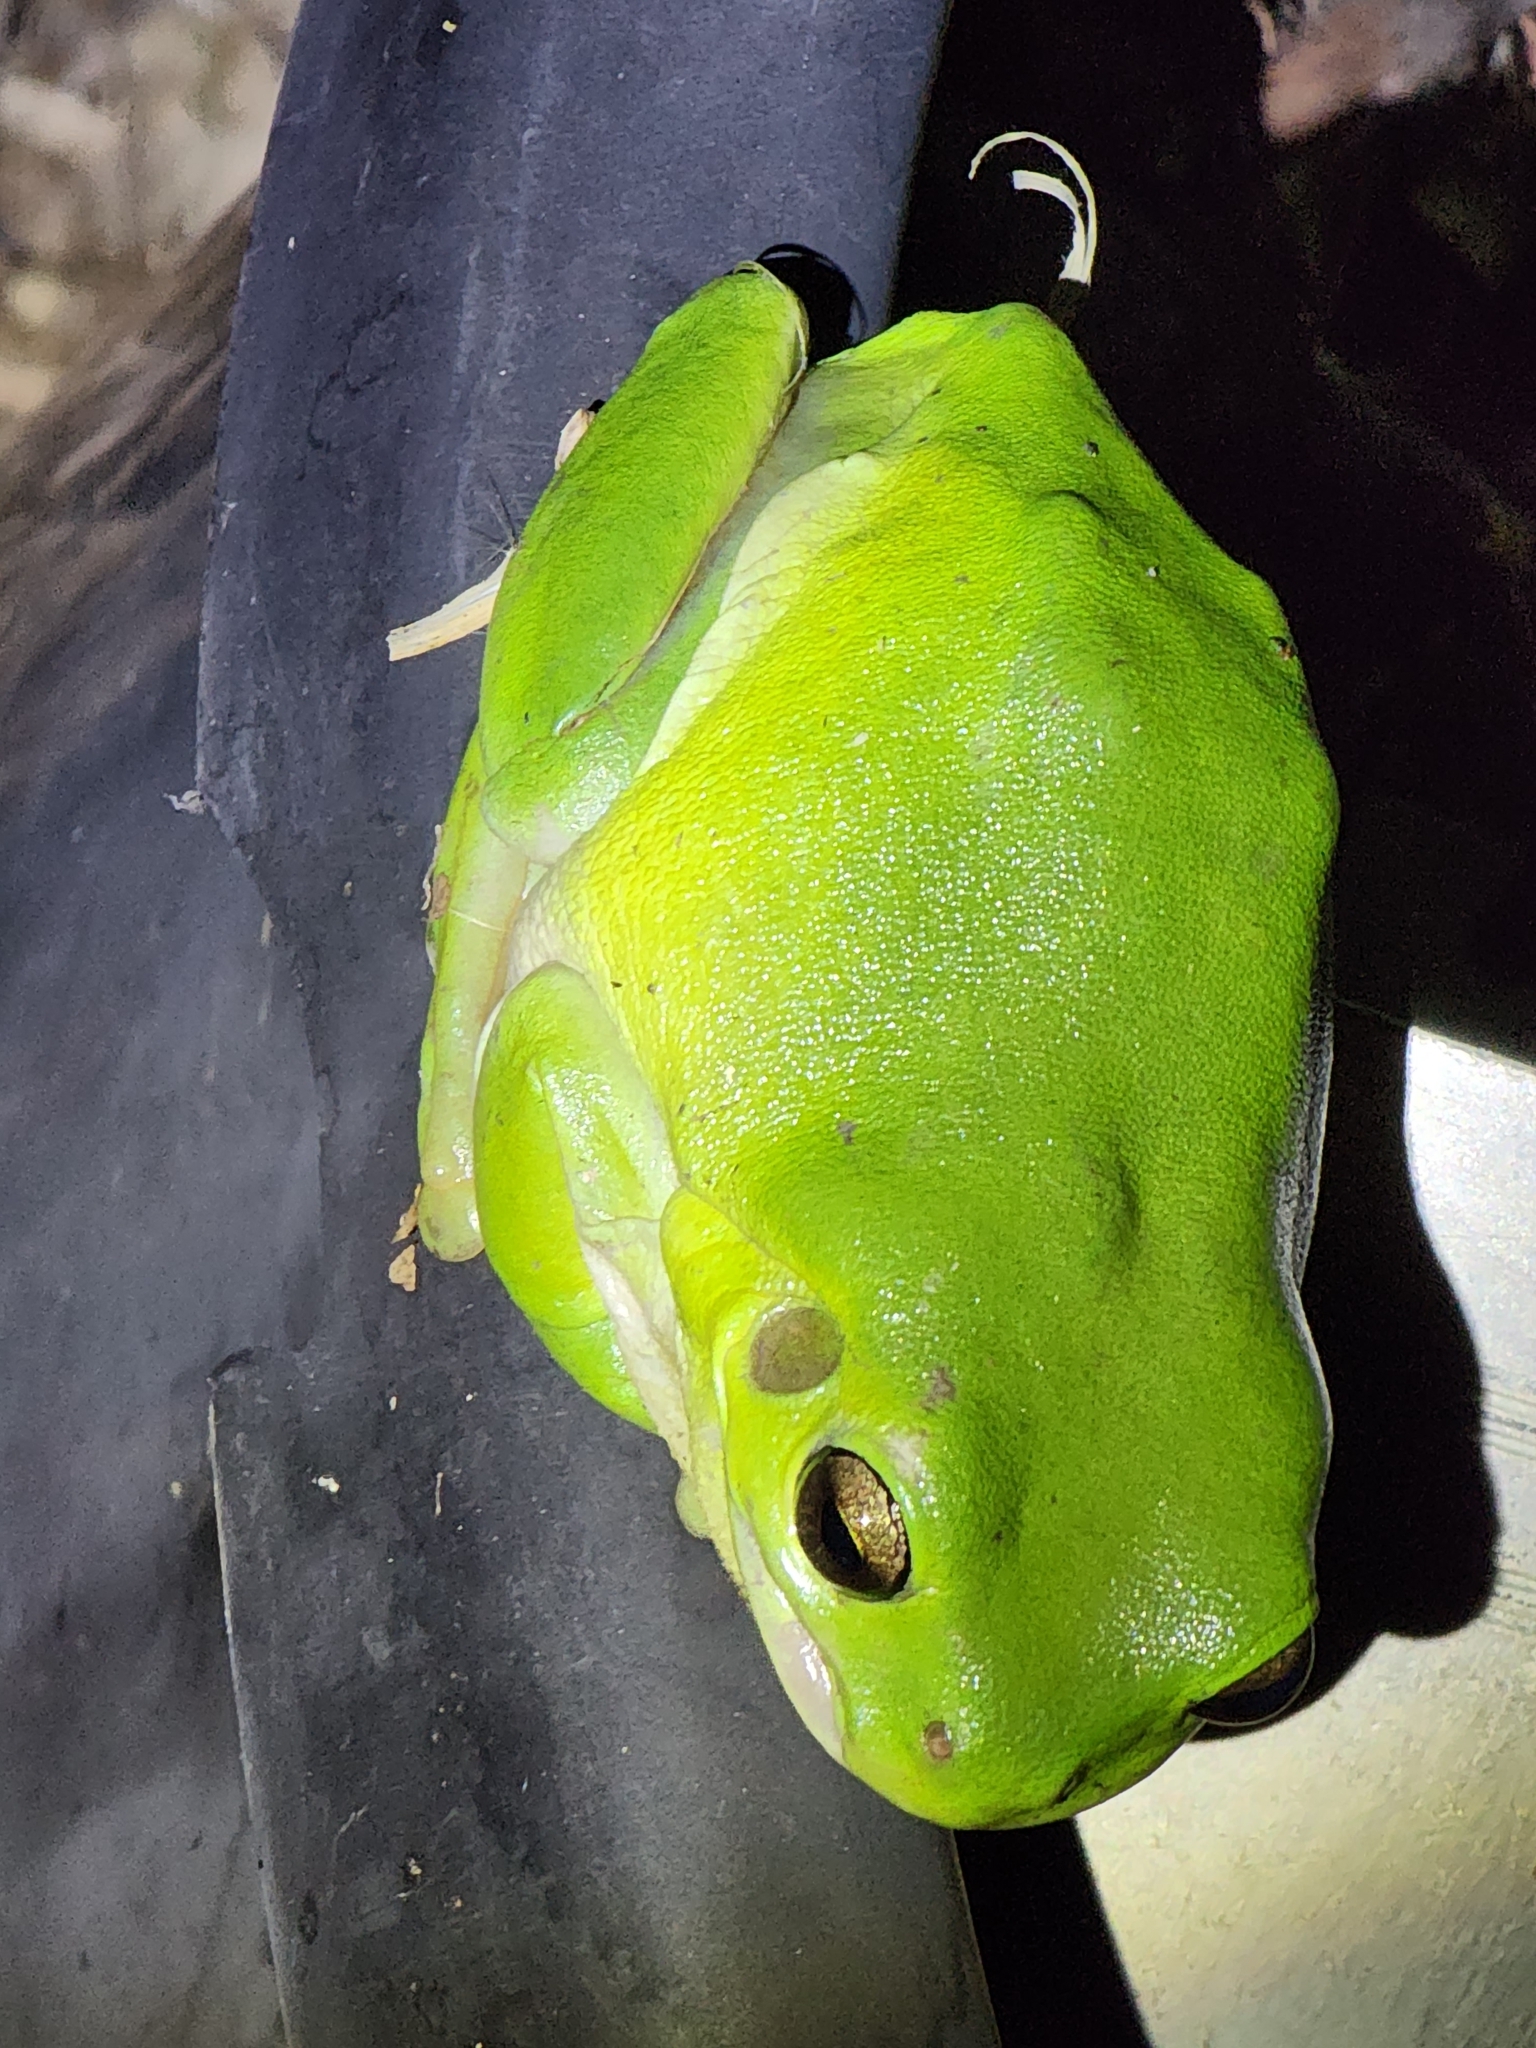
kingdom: Animalia
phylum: Chordata
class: Amphibia
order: Anura
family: Pelodryadidae
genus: Ranoidea
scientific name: Ranoidea caerulea
